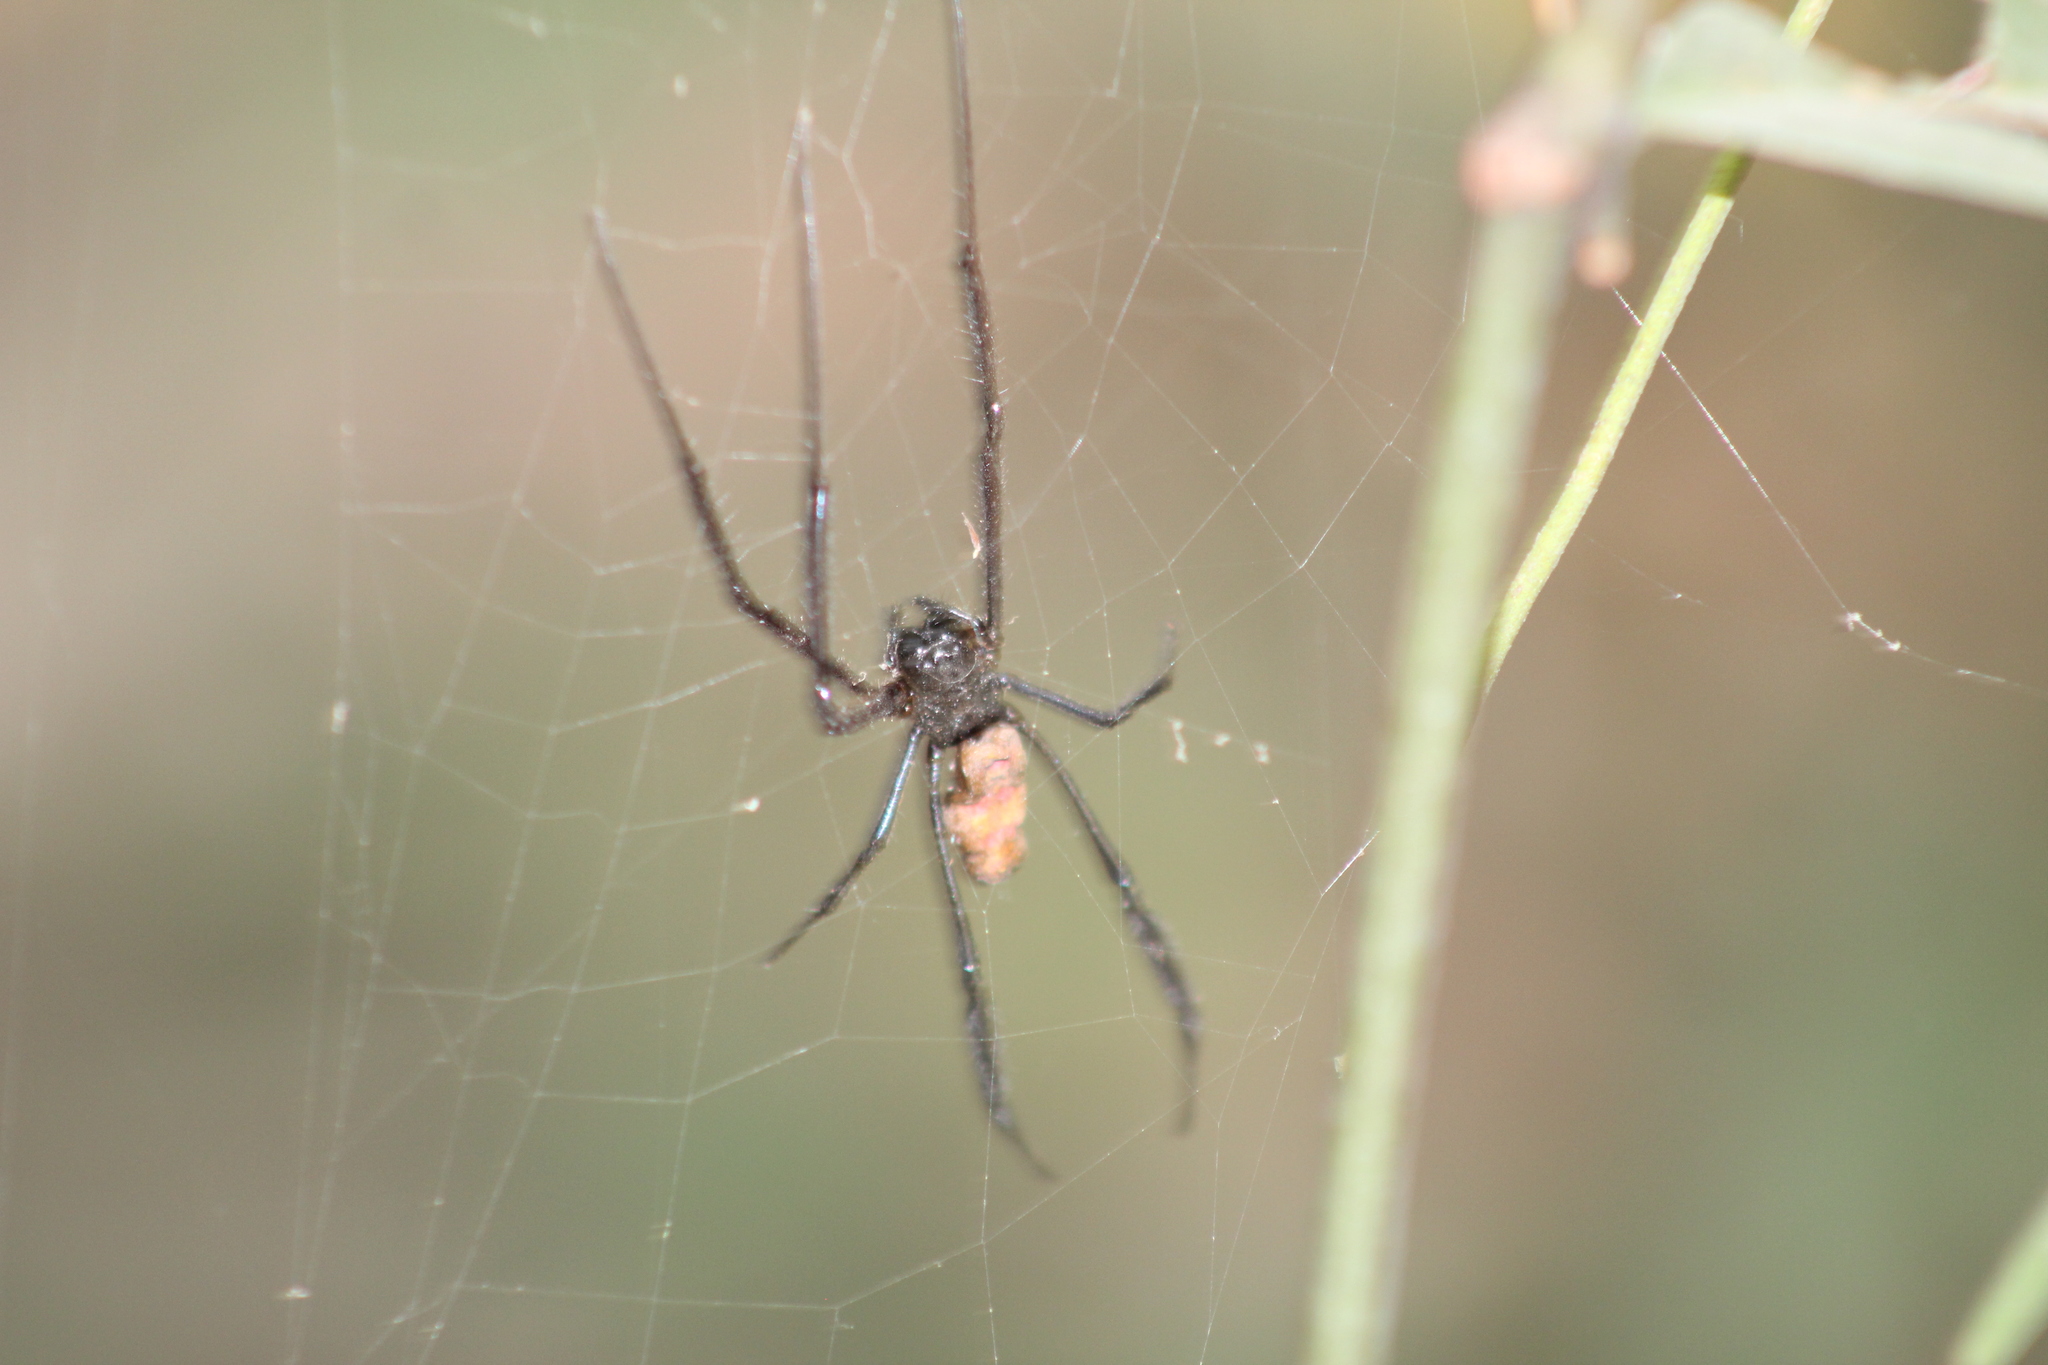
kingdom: Animalia
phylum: Arthropoda
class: Arachnida
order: Araneae
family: Araneidae
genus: Trichonephila
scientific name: Trichonephila fenestrata
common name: Hairy golden orb weaver
